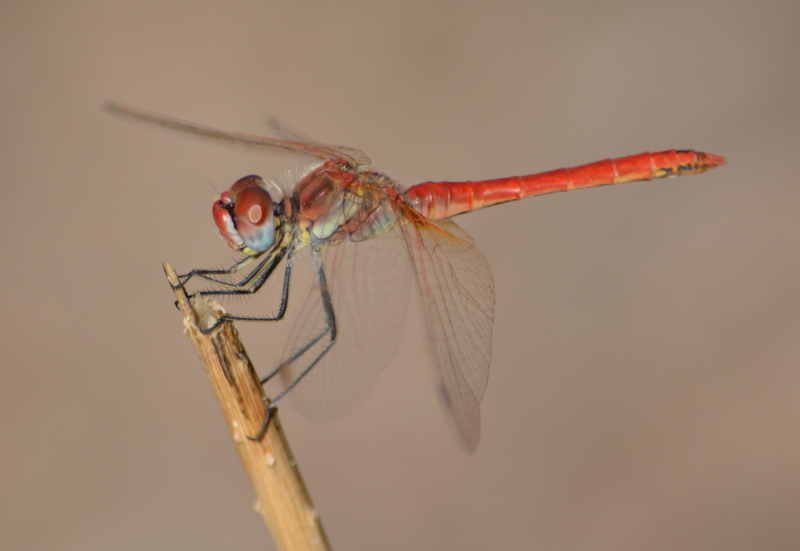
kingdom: Animalia
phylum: Arthropoda
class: Insecta
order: Odonata
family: Libellulidae
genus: Sympetrum
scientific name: Sympetrum fonscolombii
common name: Red-veined darter
